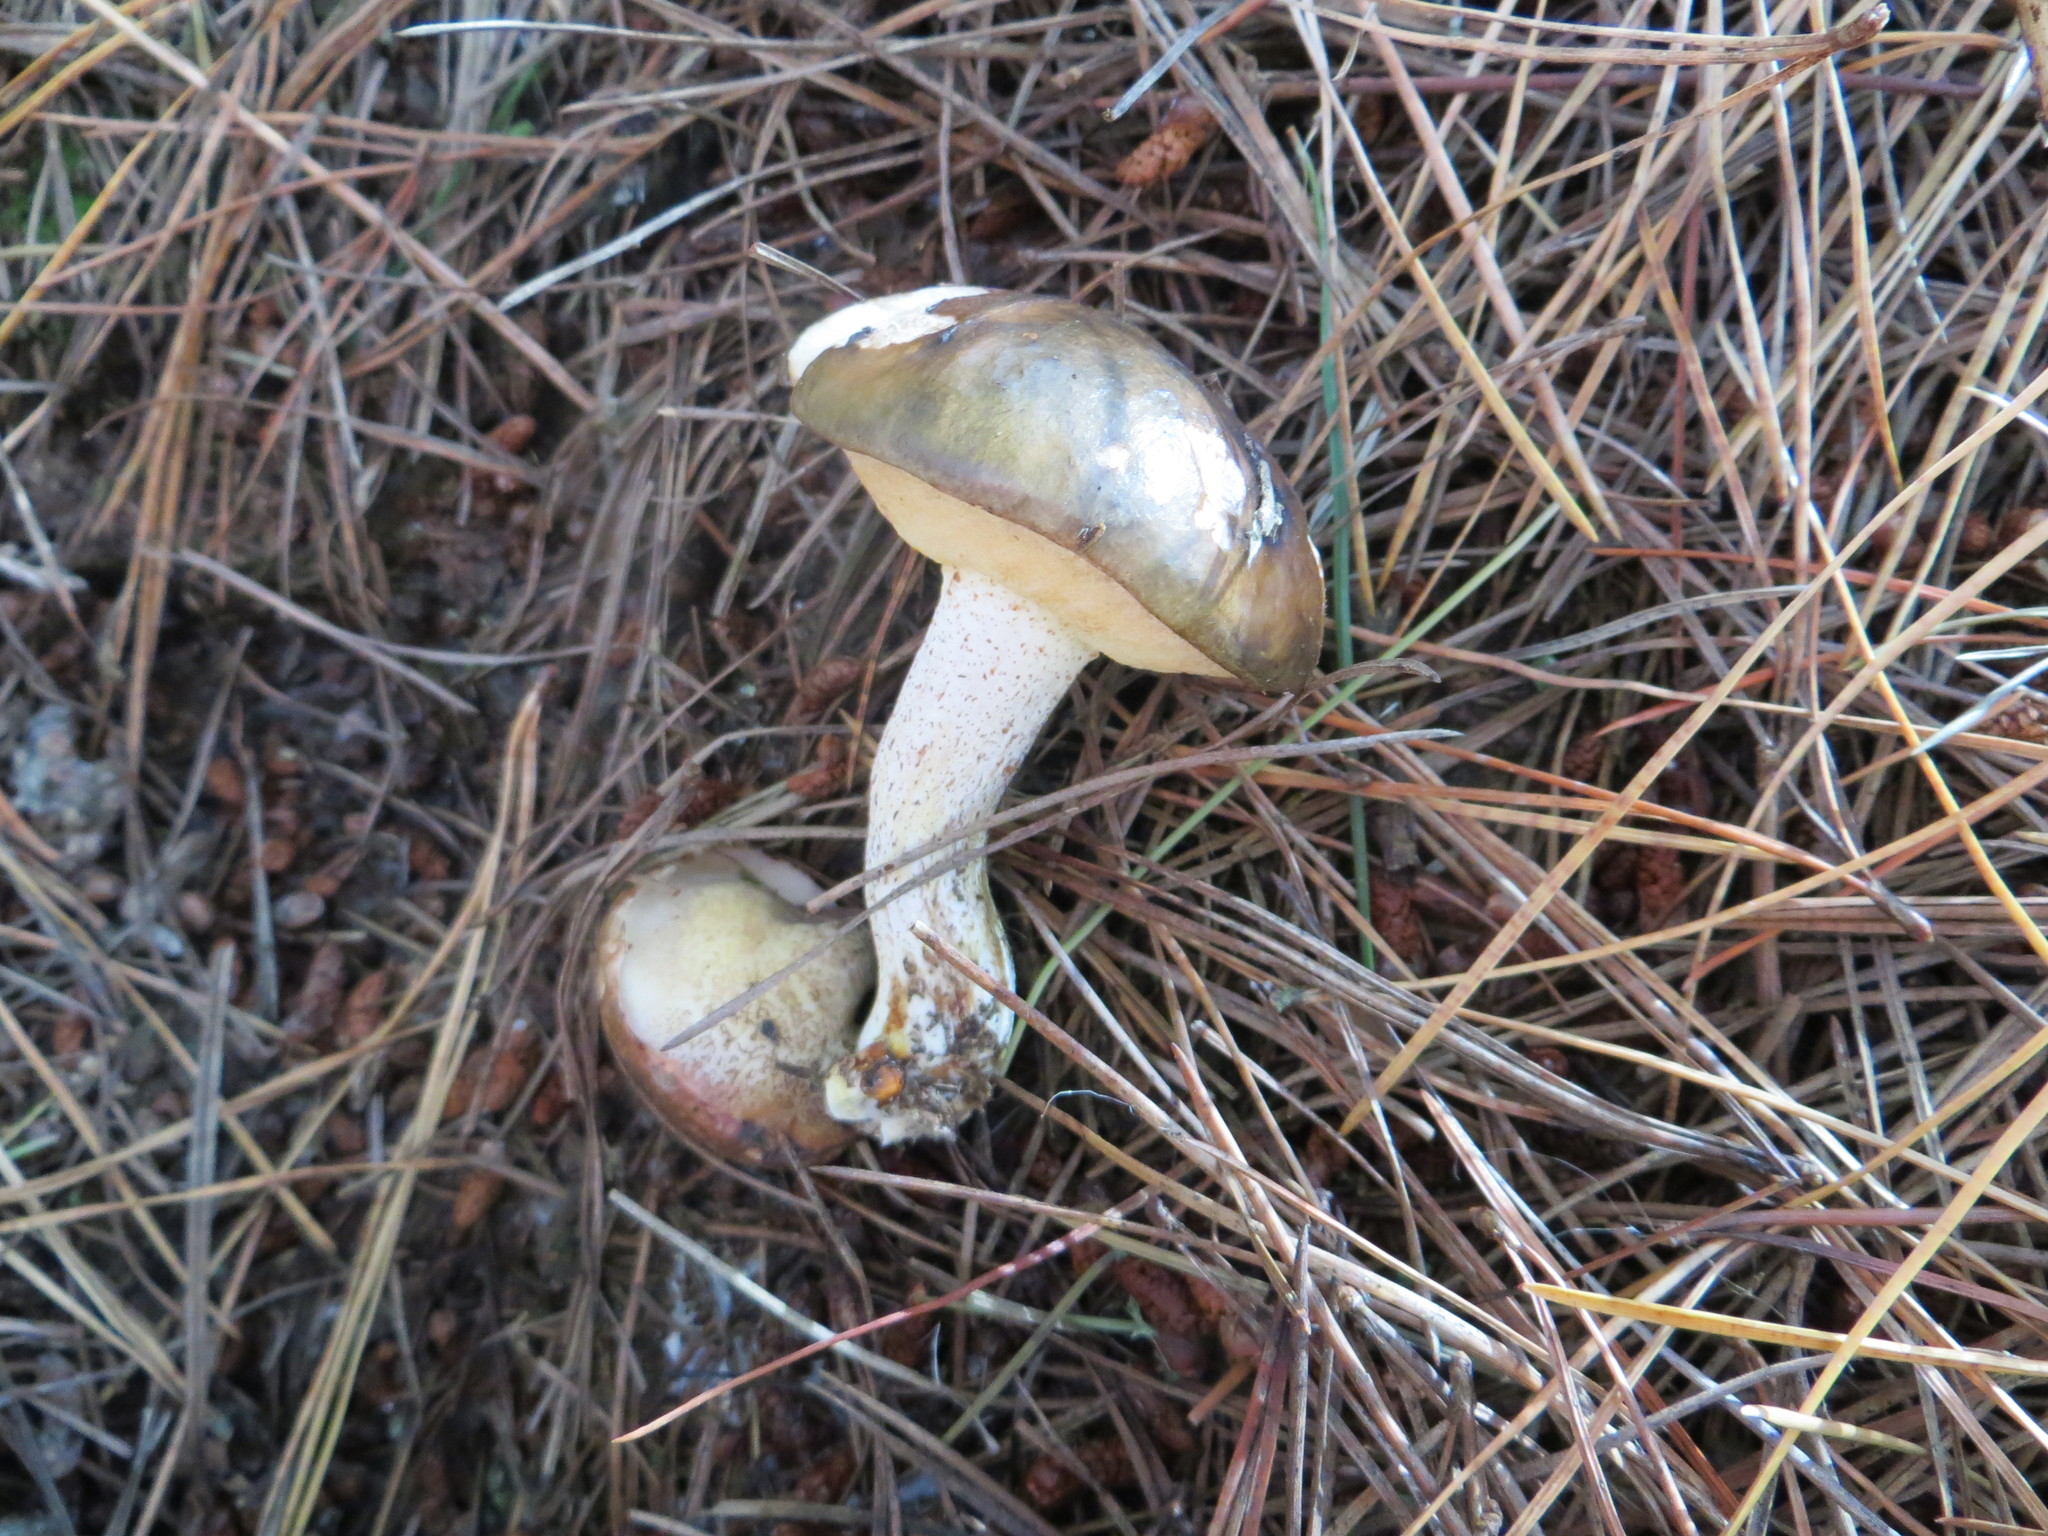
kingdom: Fungi
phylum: Basidiomycota
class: Agaricomycetes
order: Boletales
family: Suillaceae
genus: Suillus
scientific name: Suillus pungens
